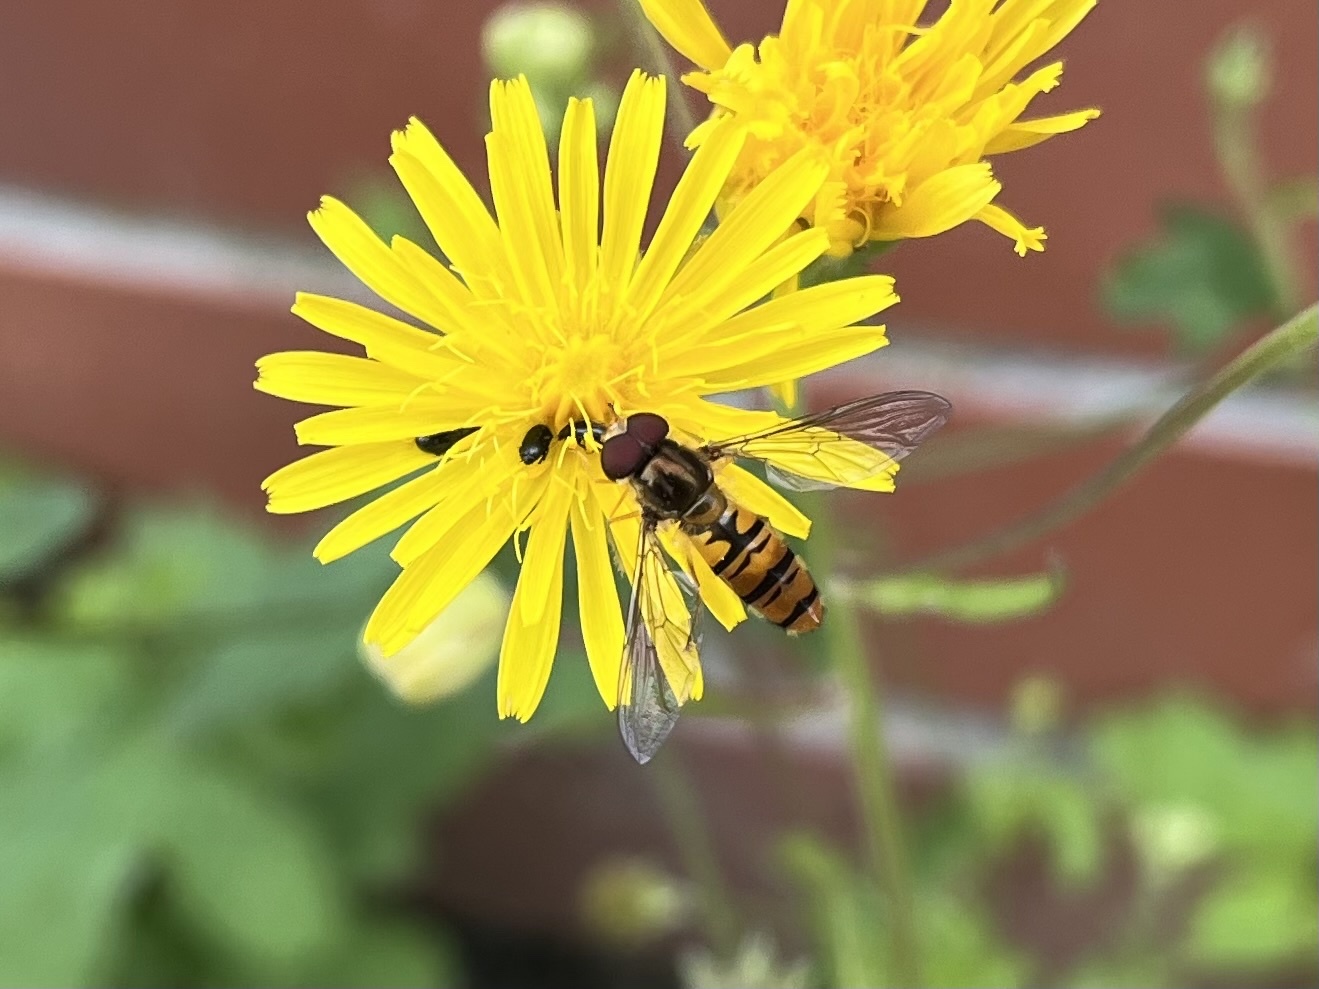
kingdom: Animalia
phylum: Arthropoda
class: Insecta
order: Diptera
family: Syrphidae
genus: Episyrphus
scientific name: Episyrphus balteatus
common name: Marmalade hoverfly
